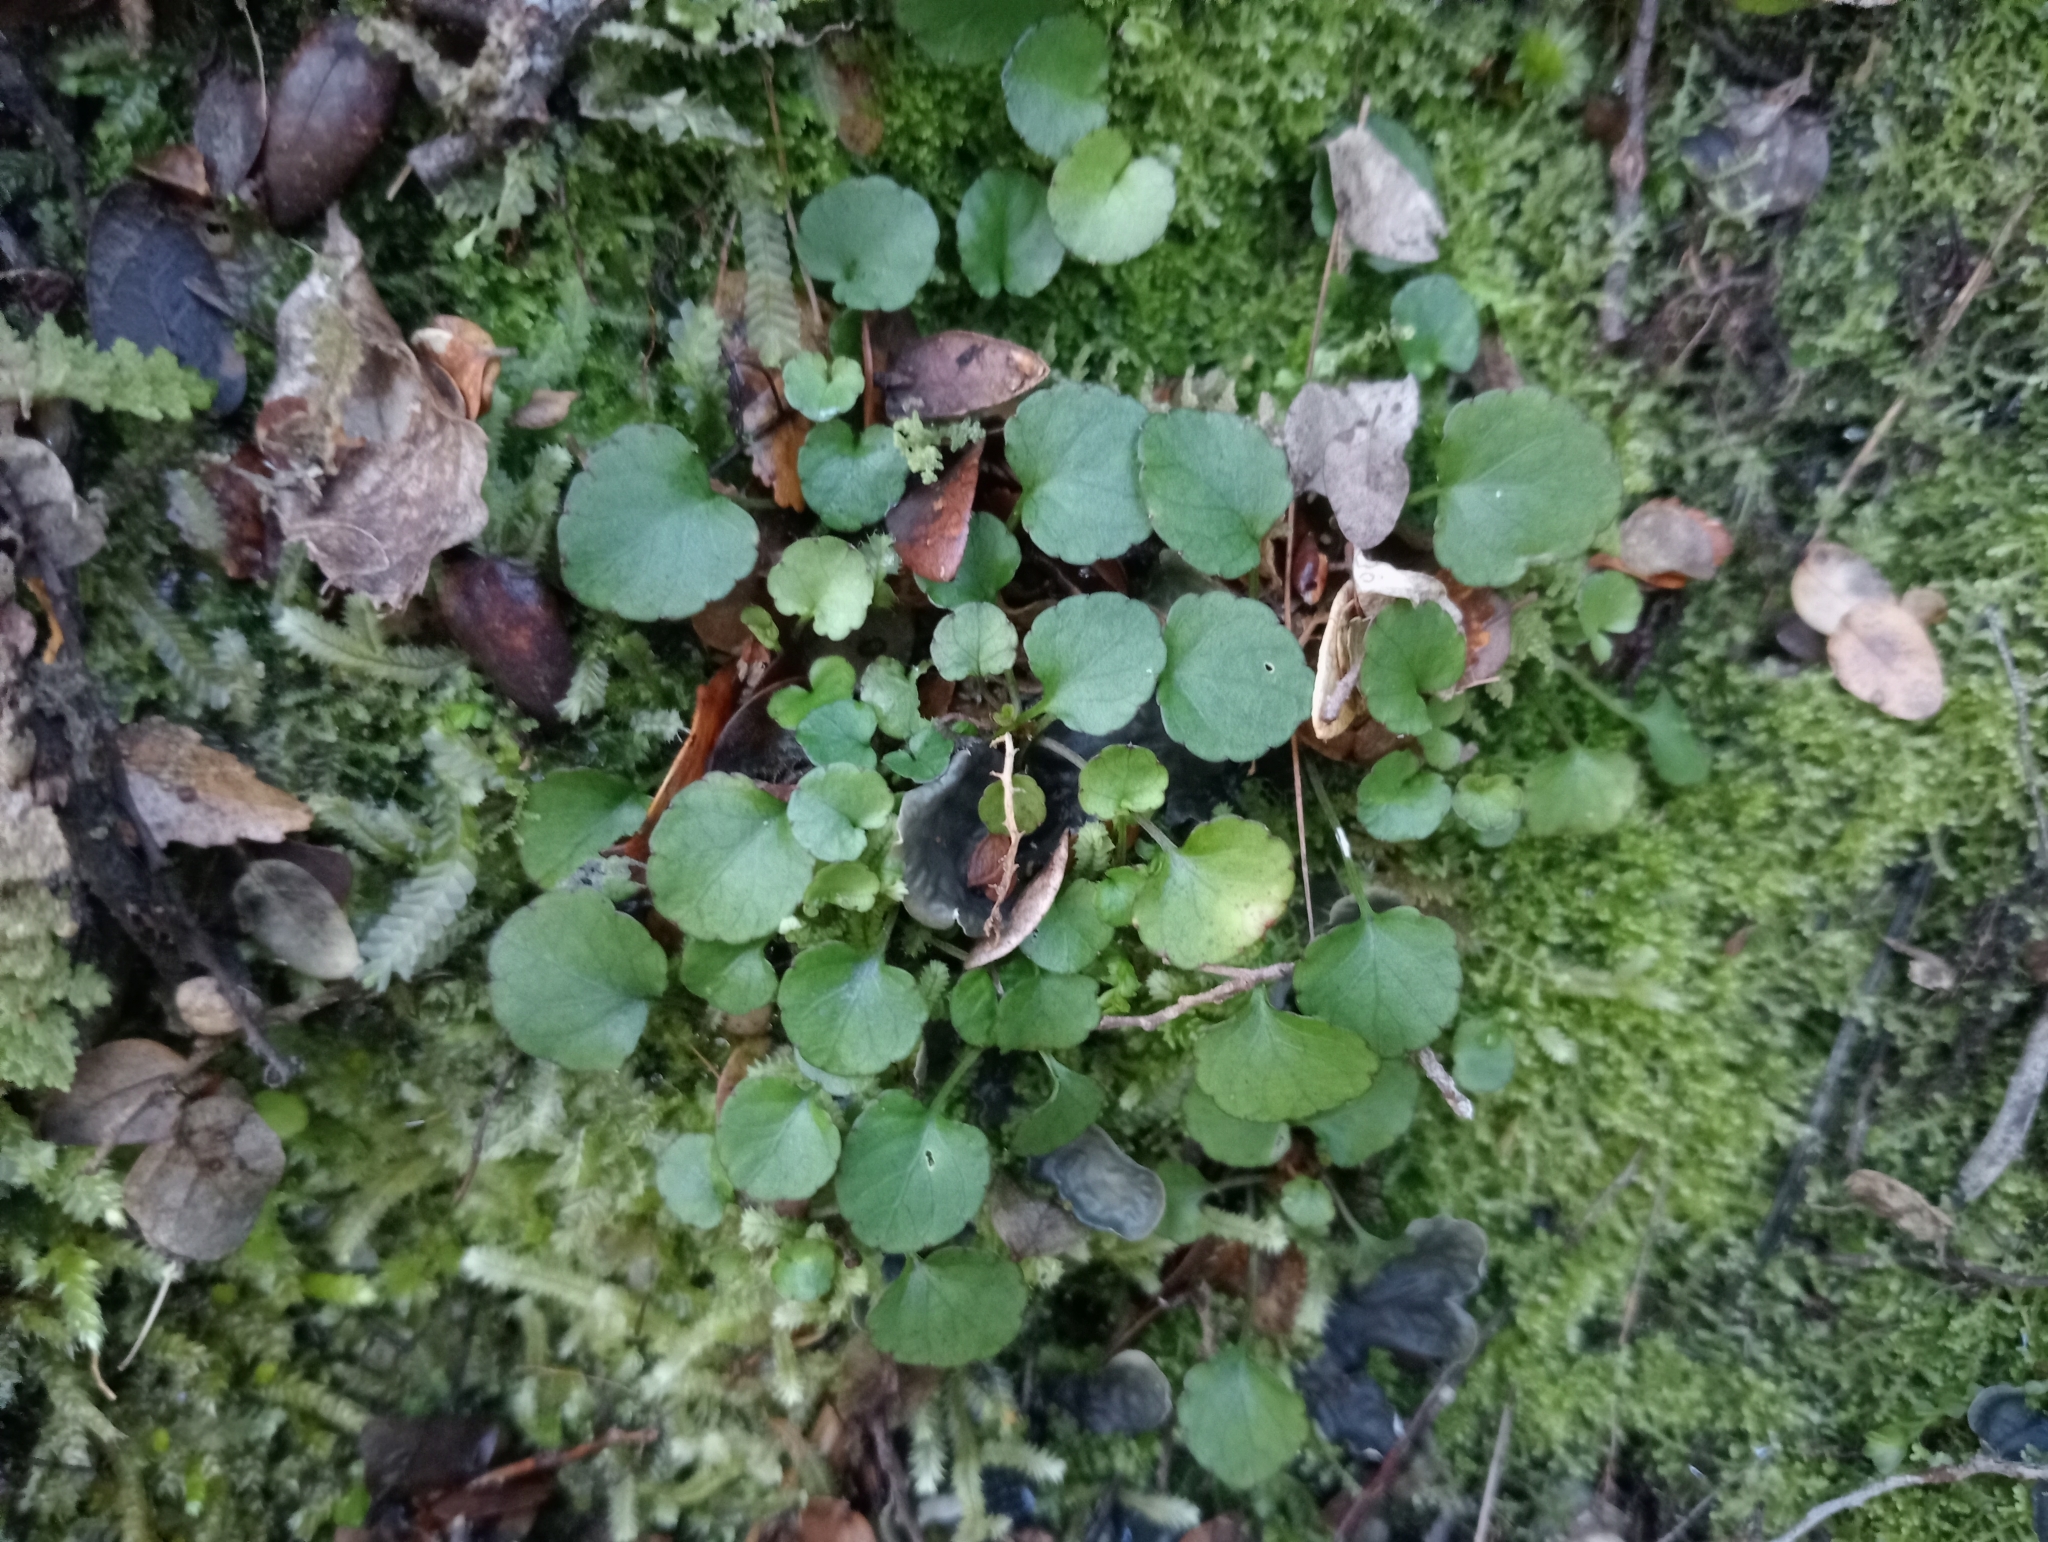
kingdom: Plantae
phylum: Tracheophyta
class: Magnoliopsida
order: Malpighiales
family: Violaceae
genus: Viola
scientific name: Viola filicaulis
